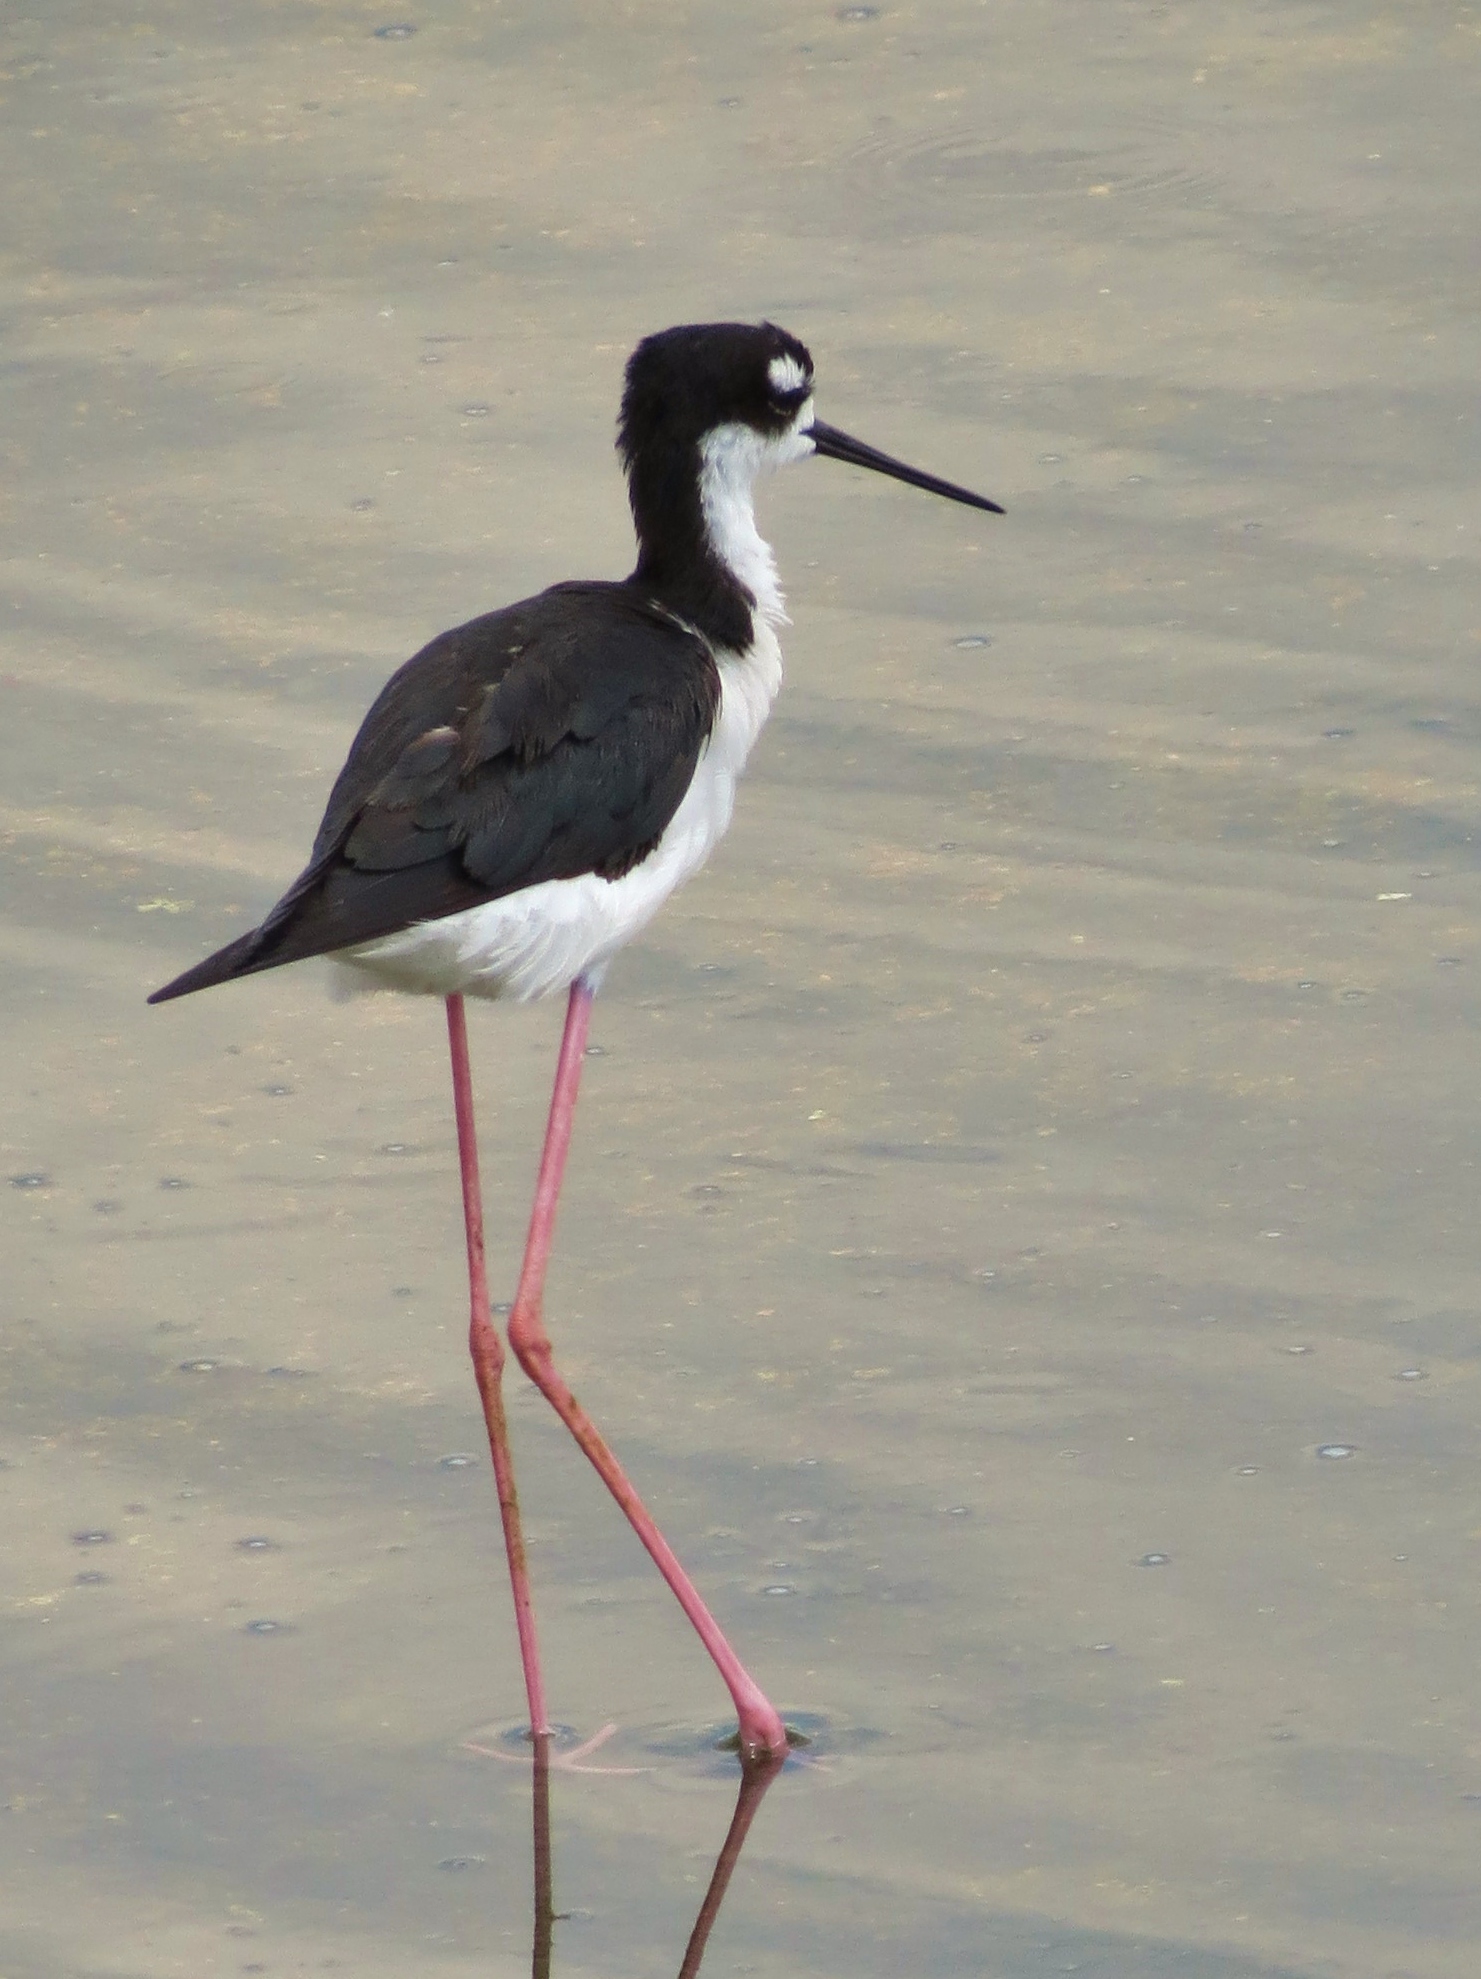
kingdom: Animalia
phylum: Chordata
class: Aves
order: Charadriiformes
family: Recurvirostridae
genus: Himantopus
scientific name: Himantopus mexicanus
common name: Black-necked stilt
